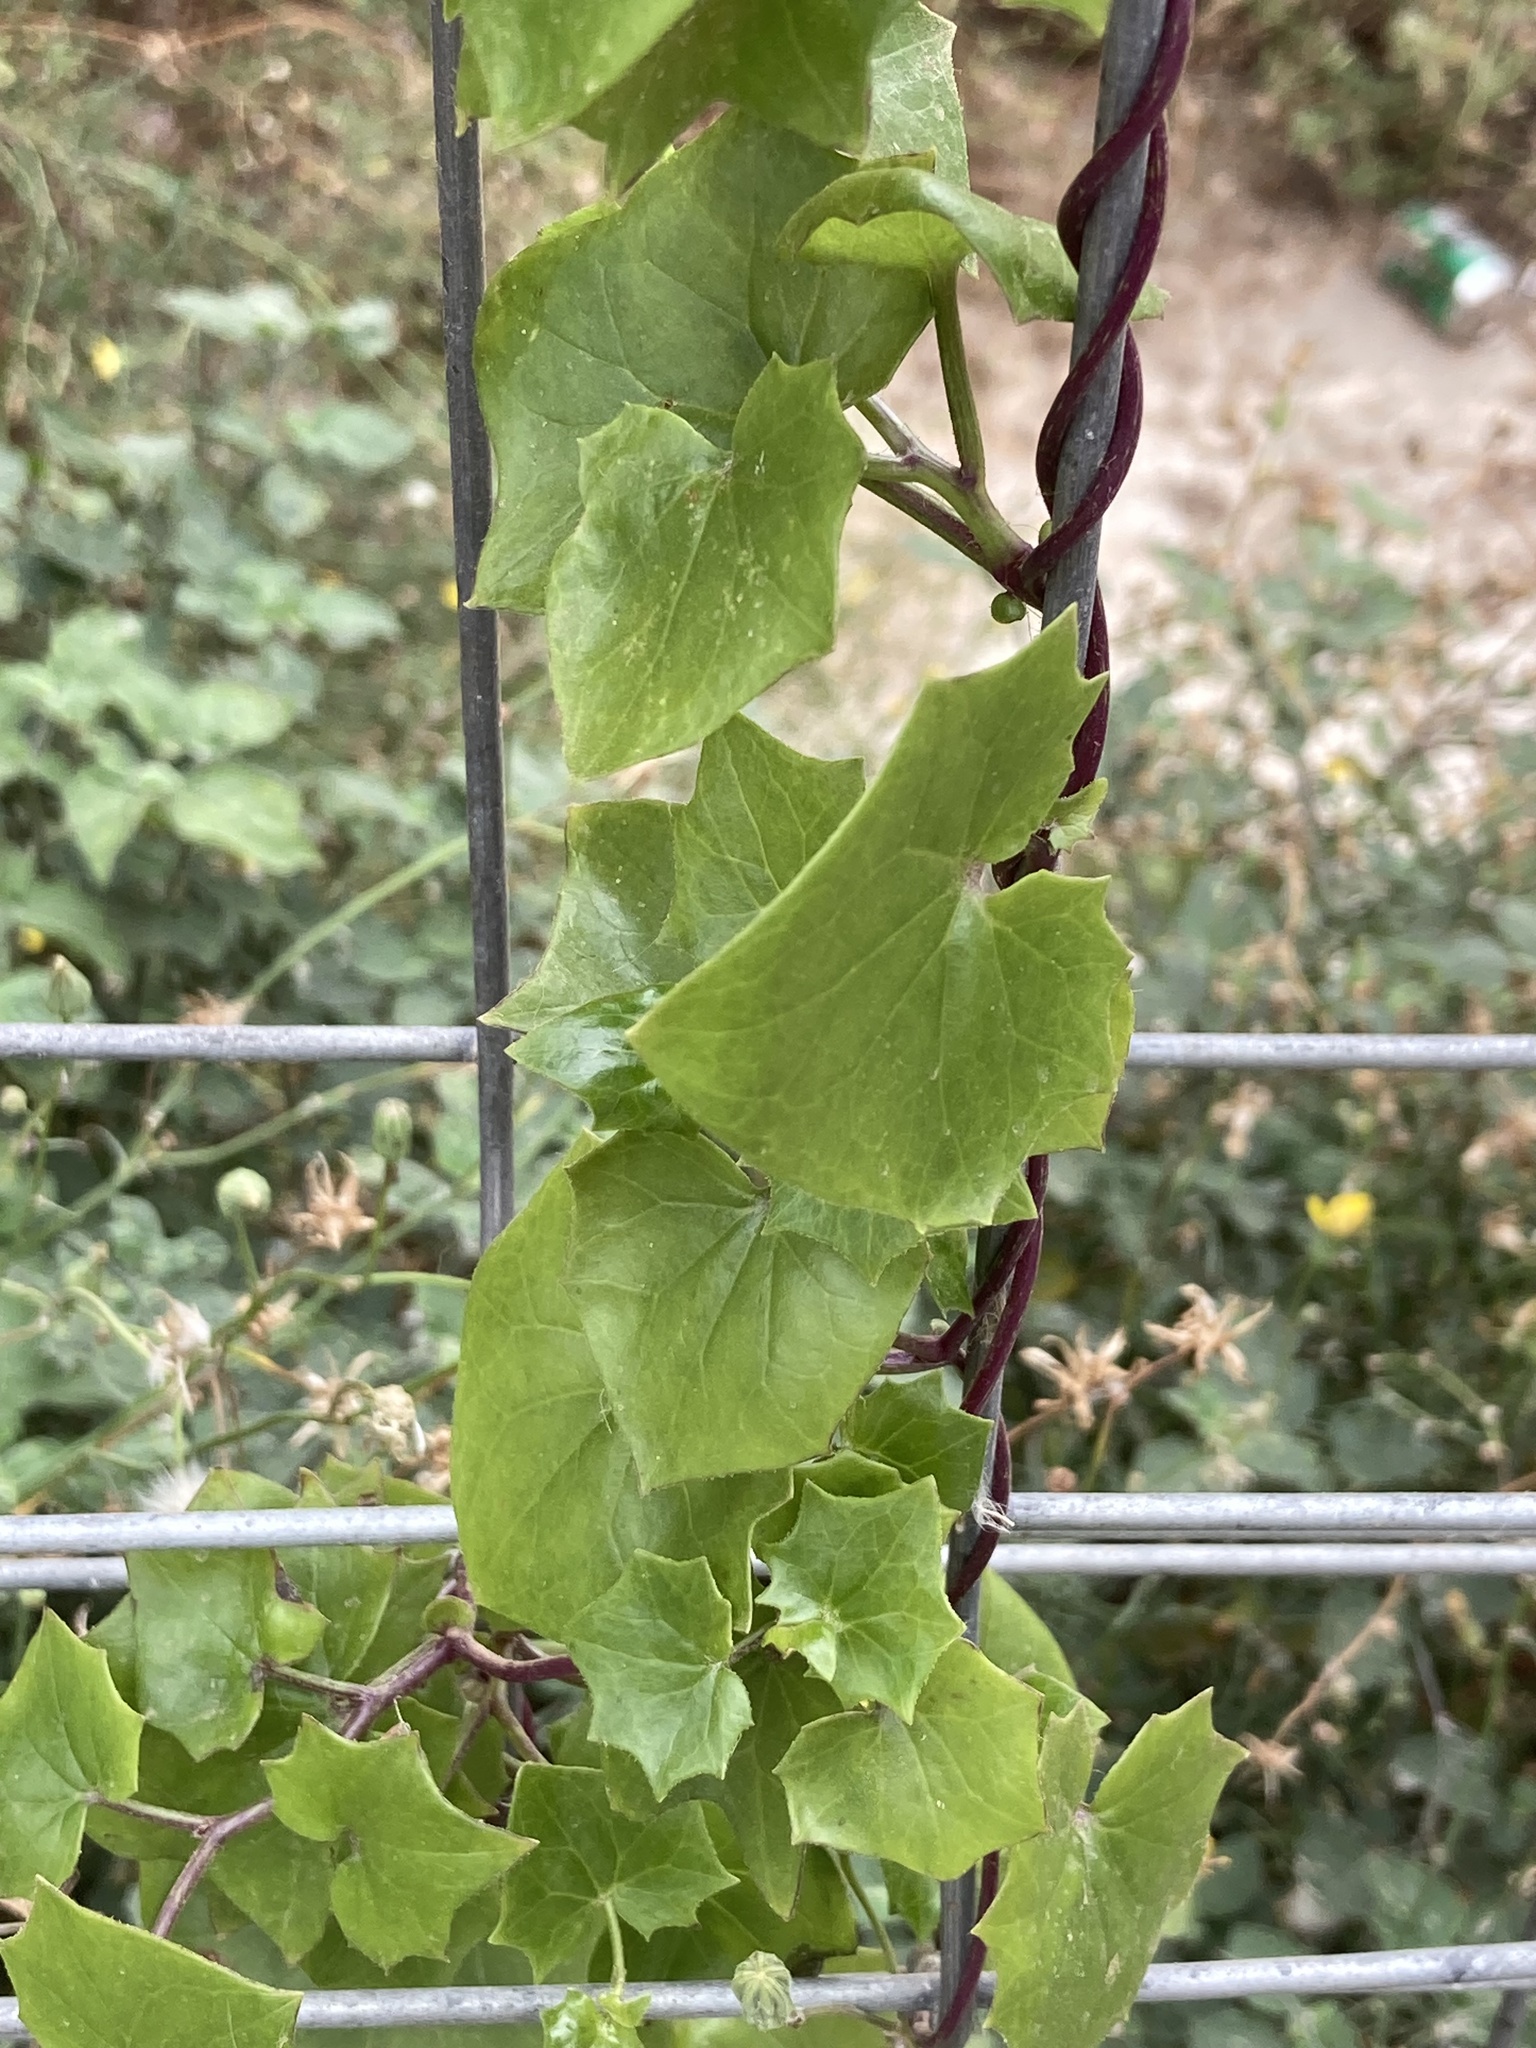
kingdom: Plantae
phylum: Tracheophyta
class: Magnoliopsida
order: Asterales
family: Asteraceae
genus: Delairea
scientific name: Delairea odorata
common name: Cape-ivy
